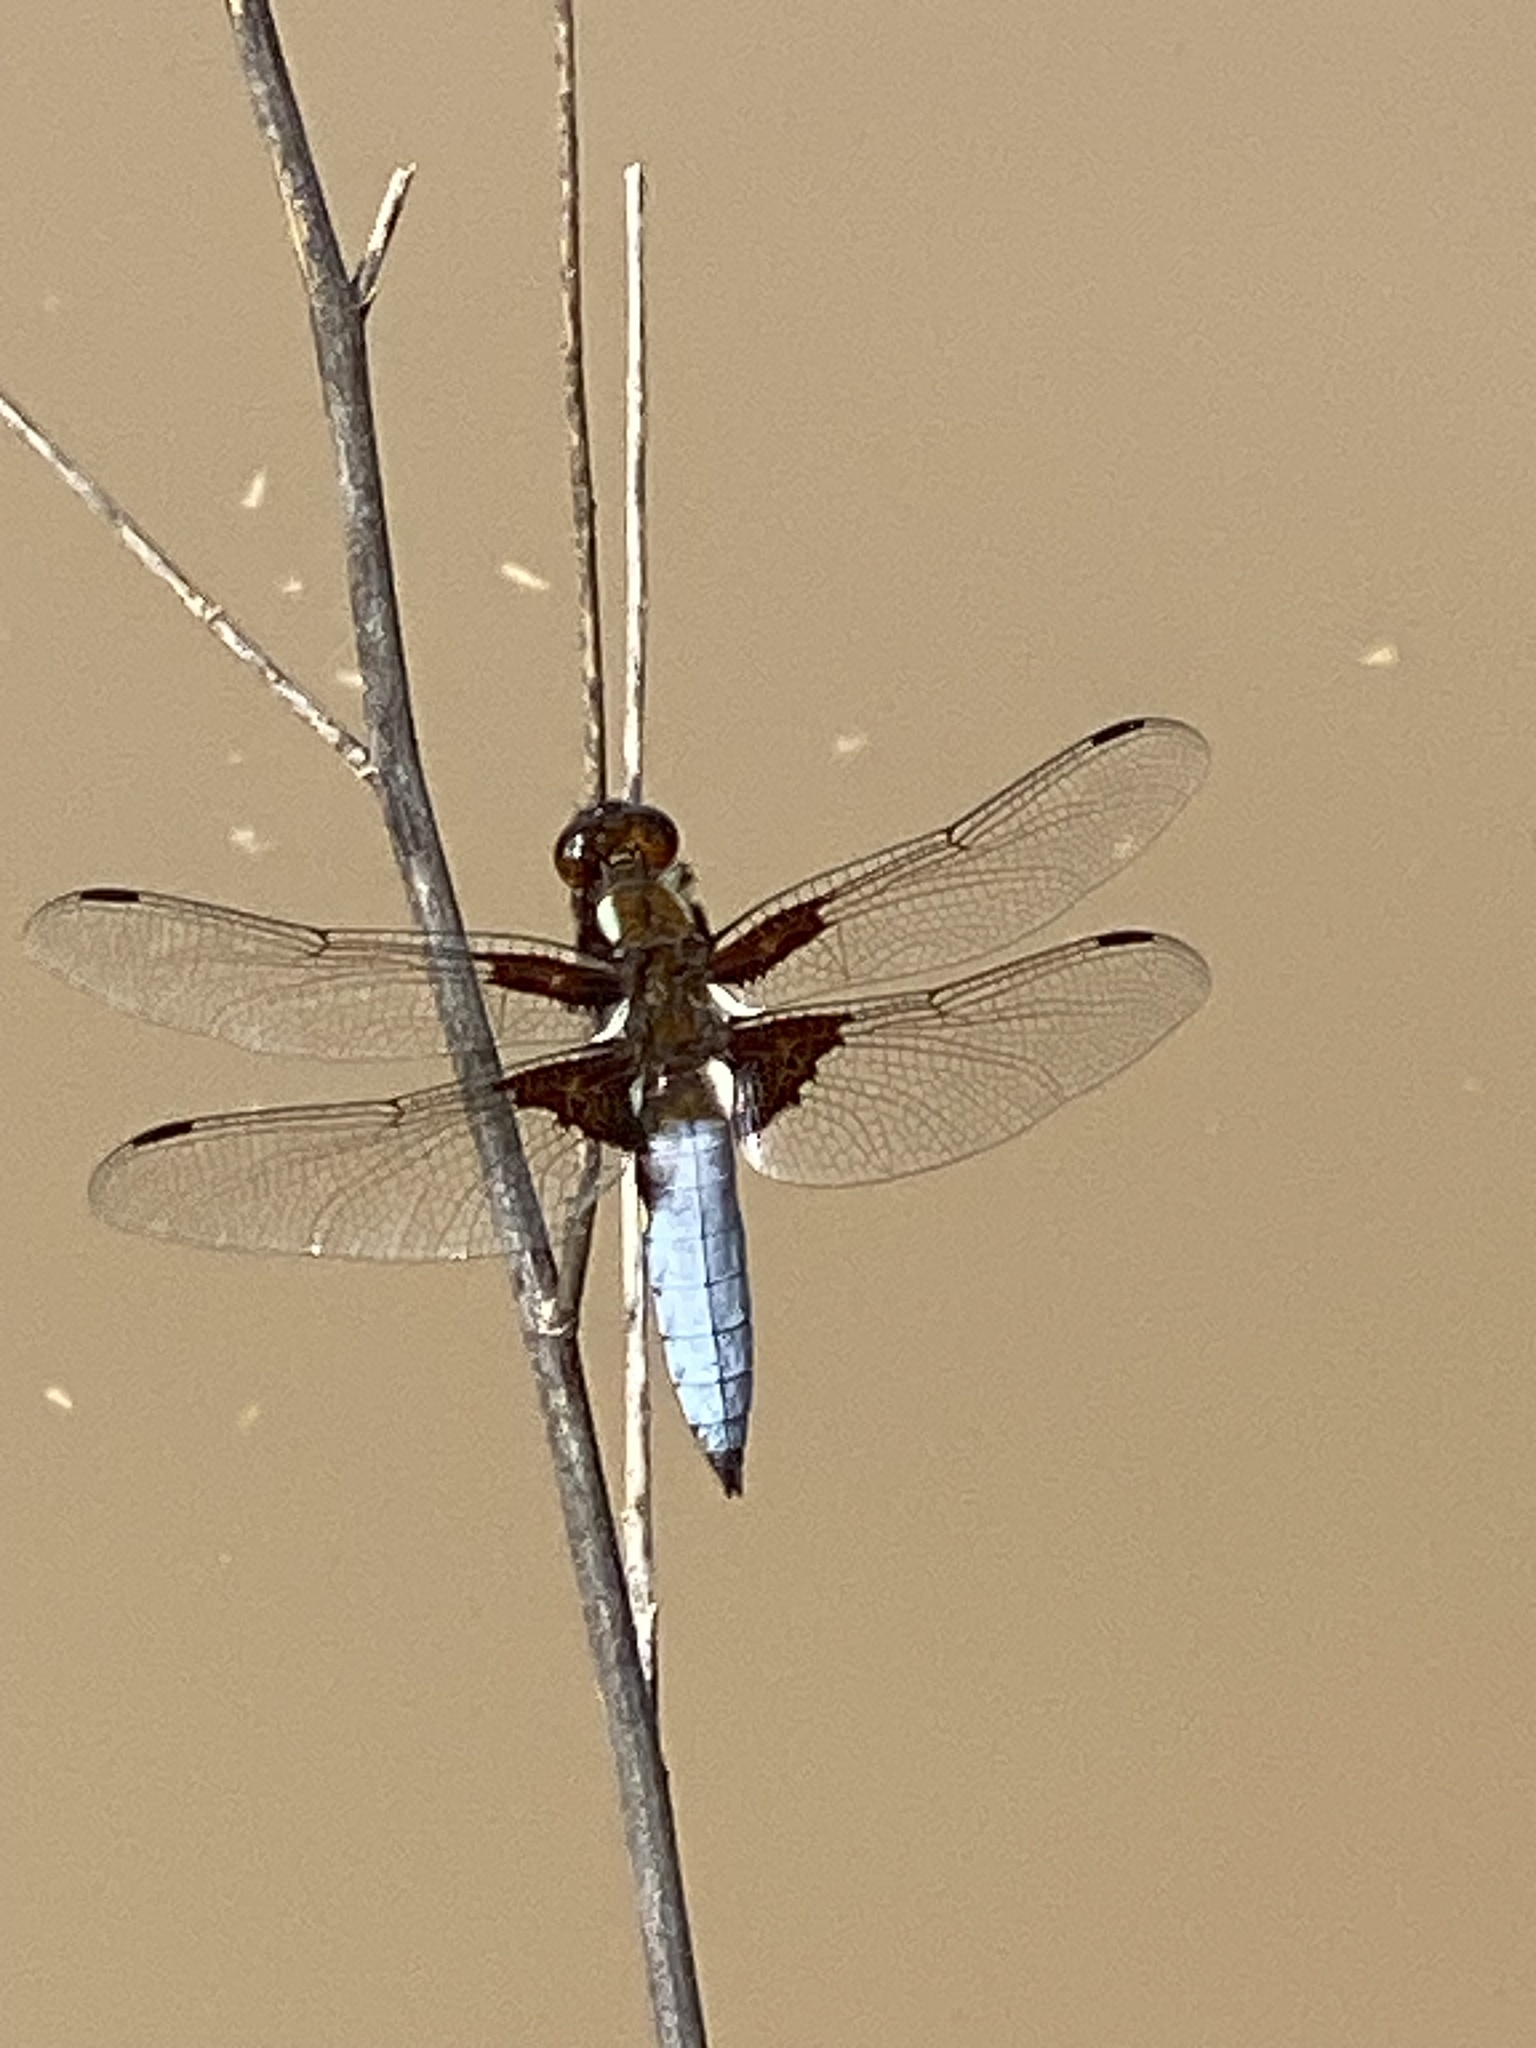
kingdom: Animalia
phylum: Arthropoda
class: Insecta
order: Odonata
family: Libellulidae
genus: Libellula
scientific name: Libellula depressa
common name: Broad-bodied chaser
